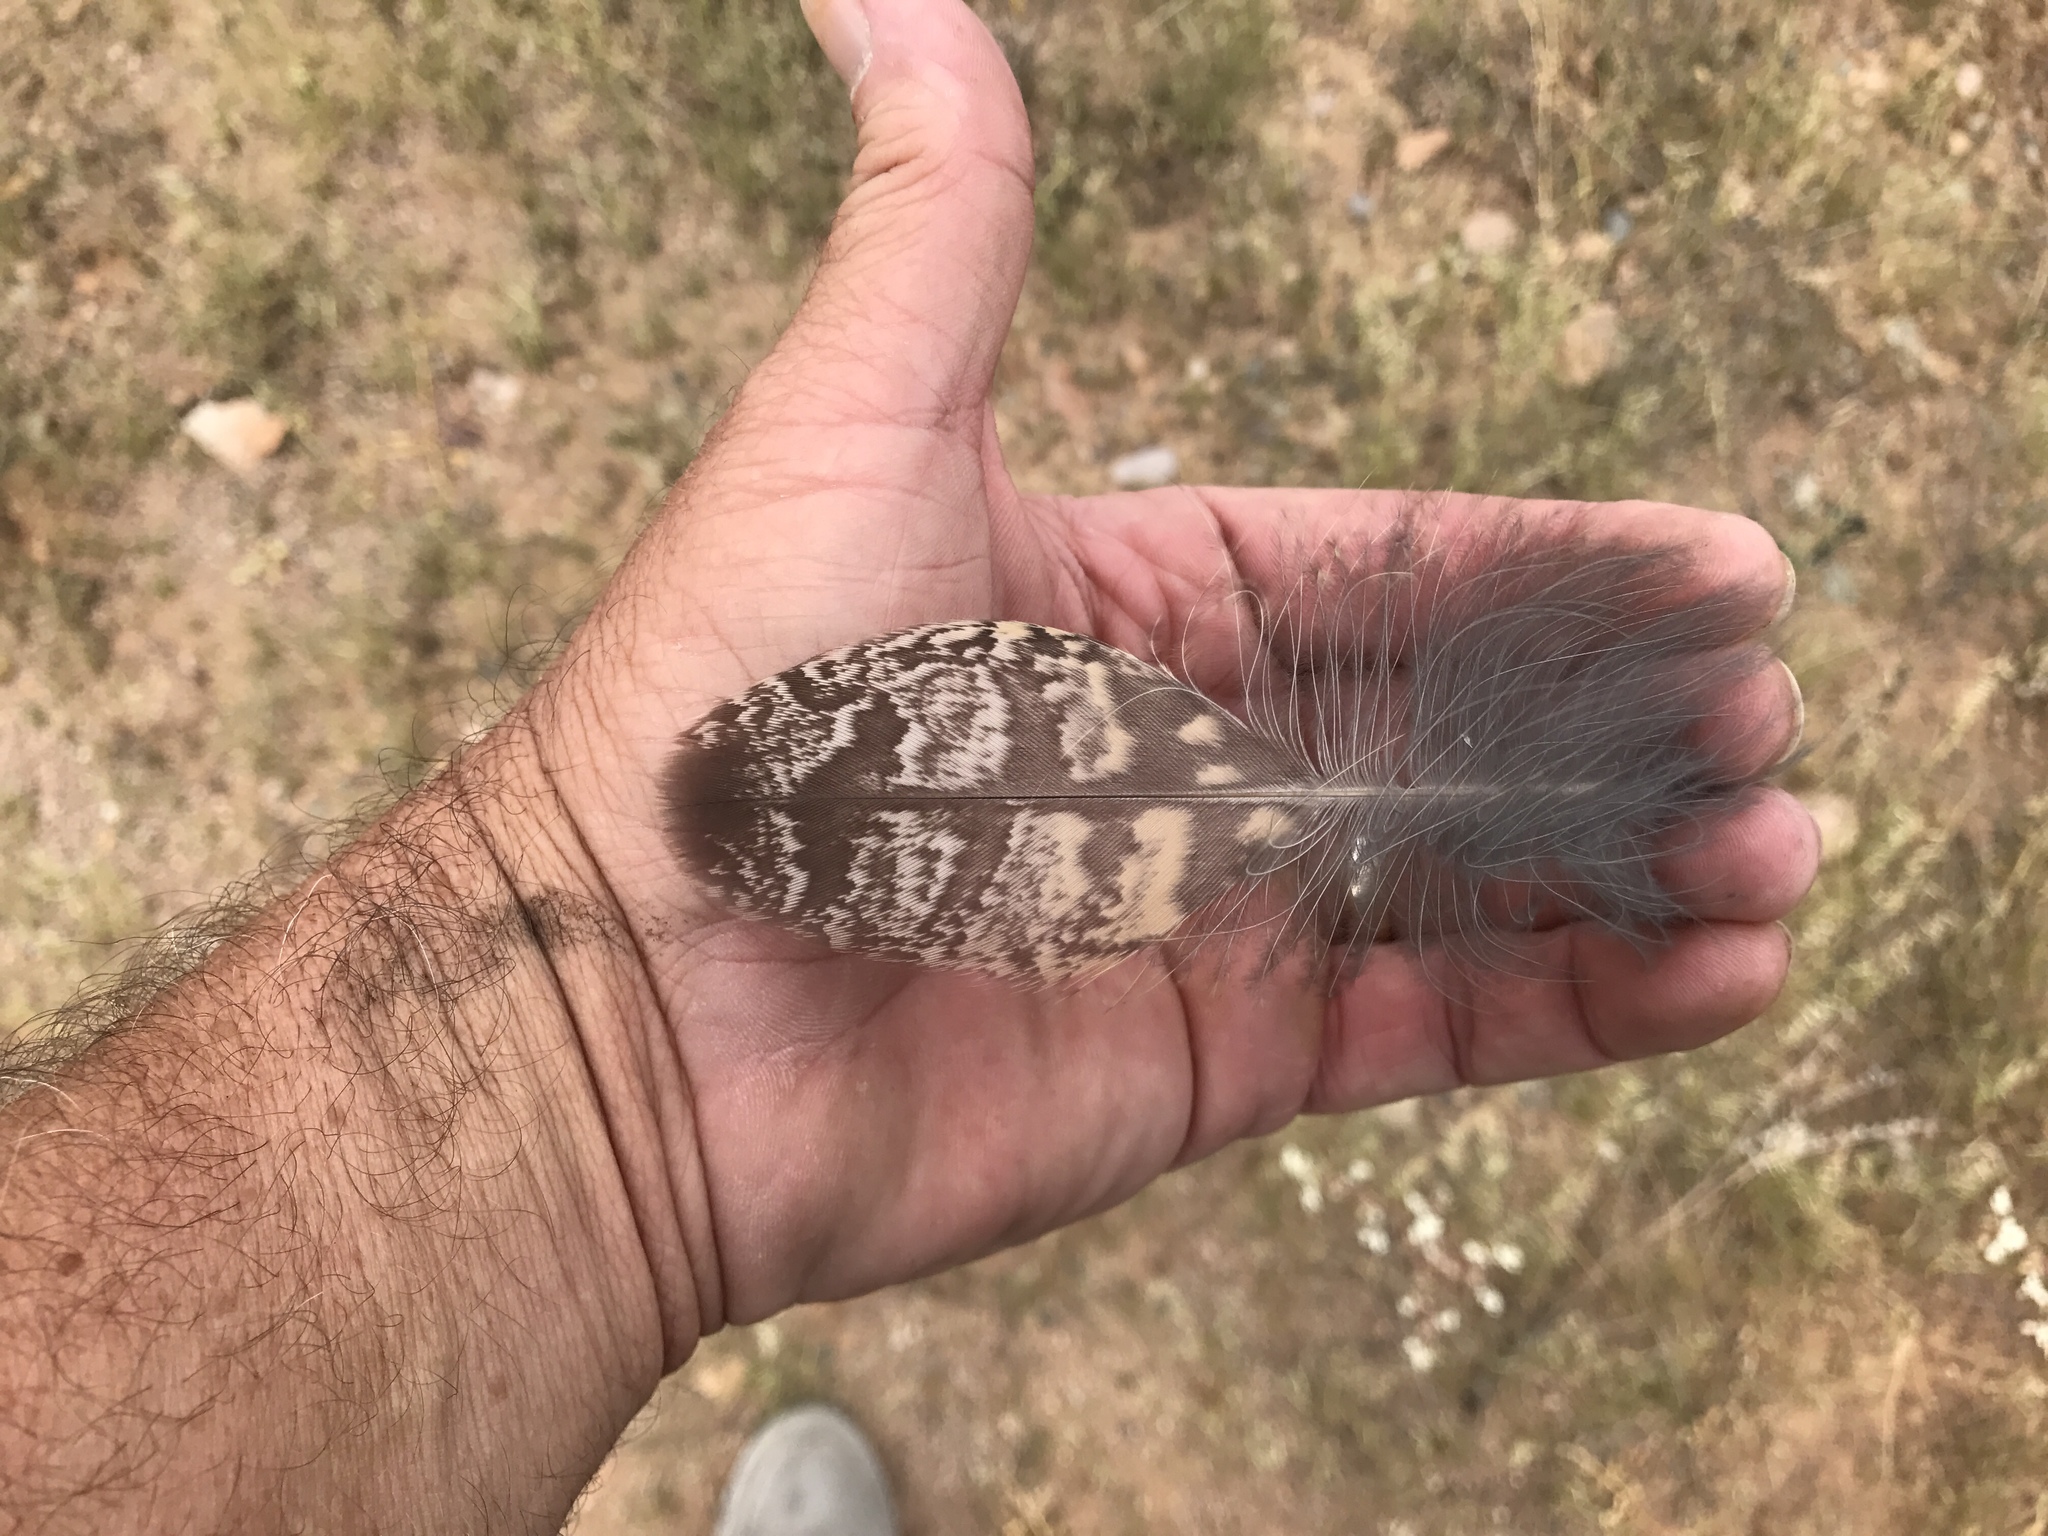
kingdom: Animalia
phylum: Chordata
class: Aves
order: Strigiformes
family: Strigidae
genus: Bubo
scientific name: Bubo virginianus
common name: Great horned owl
